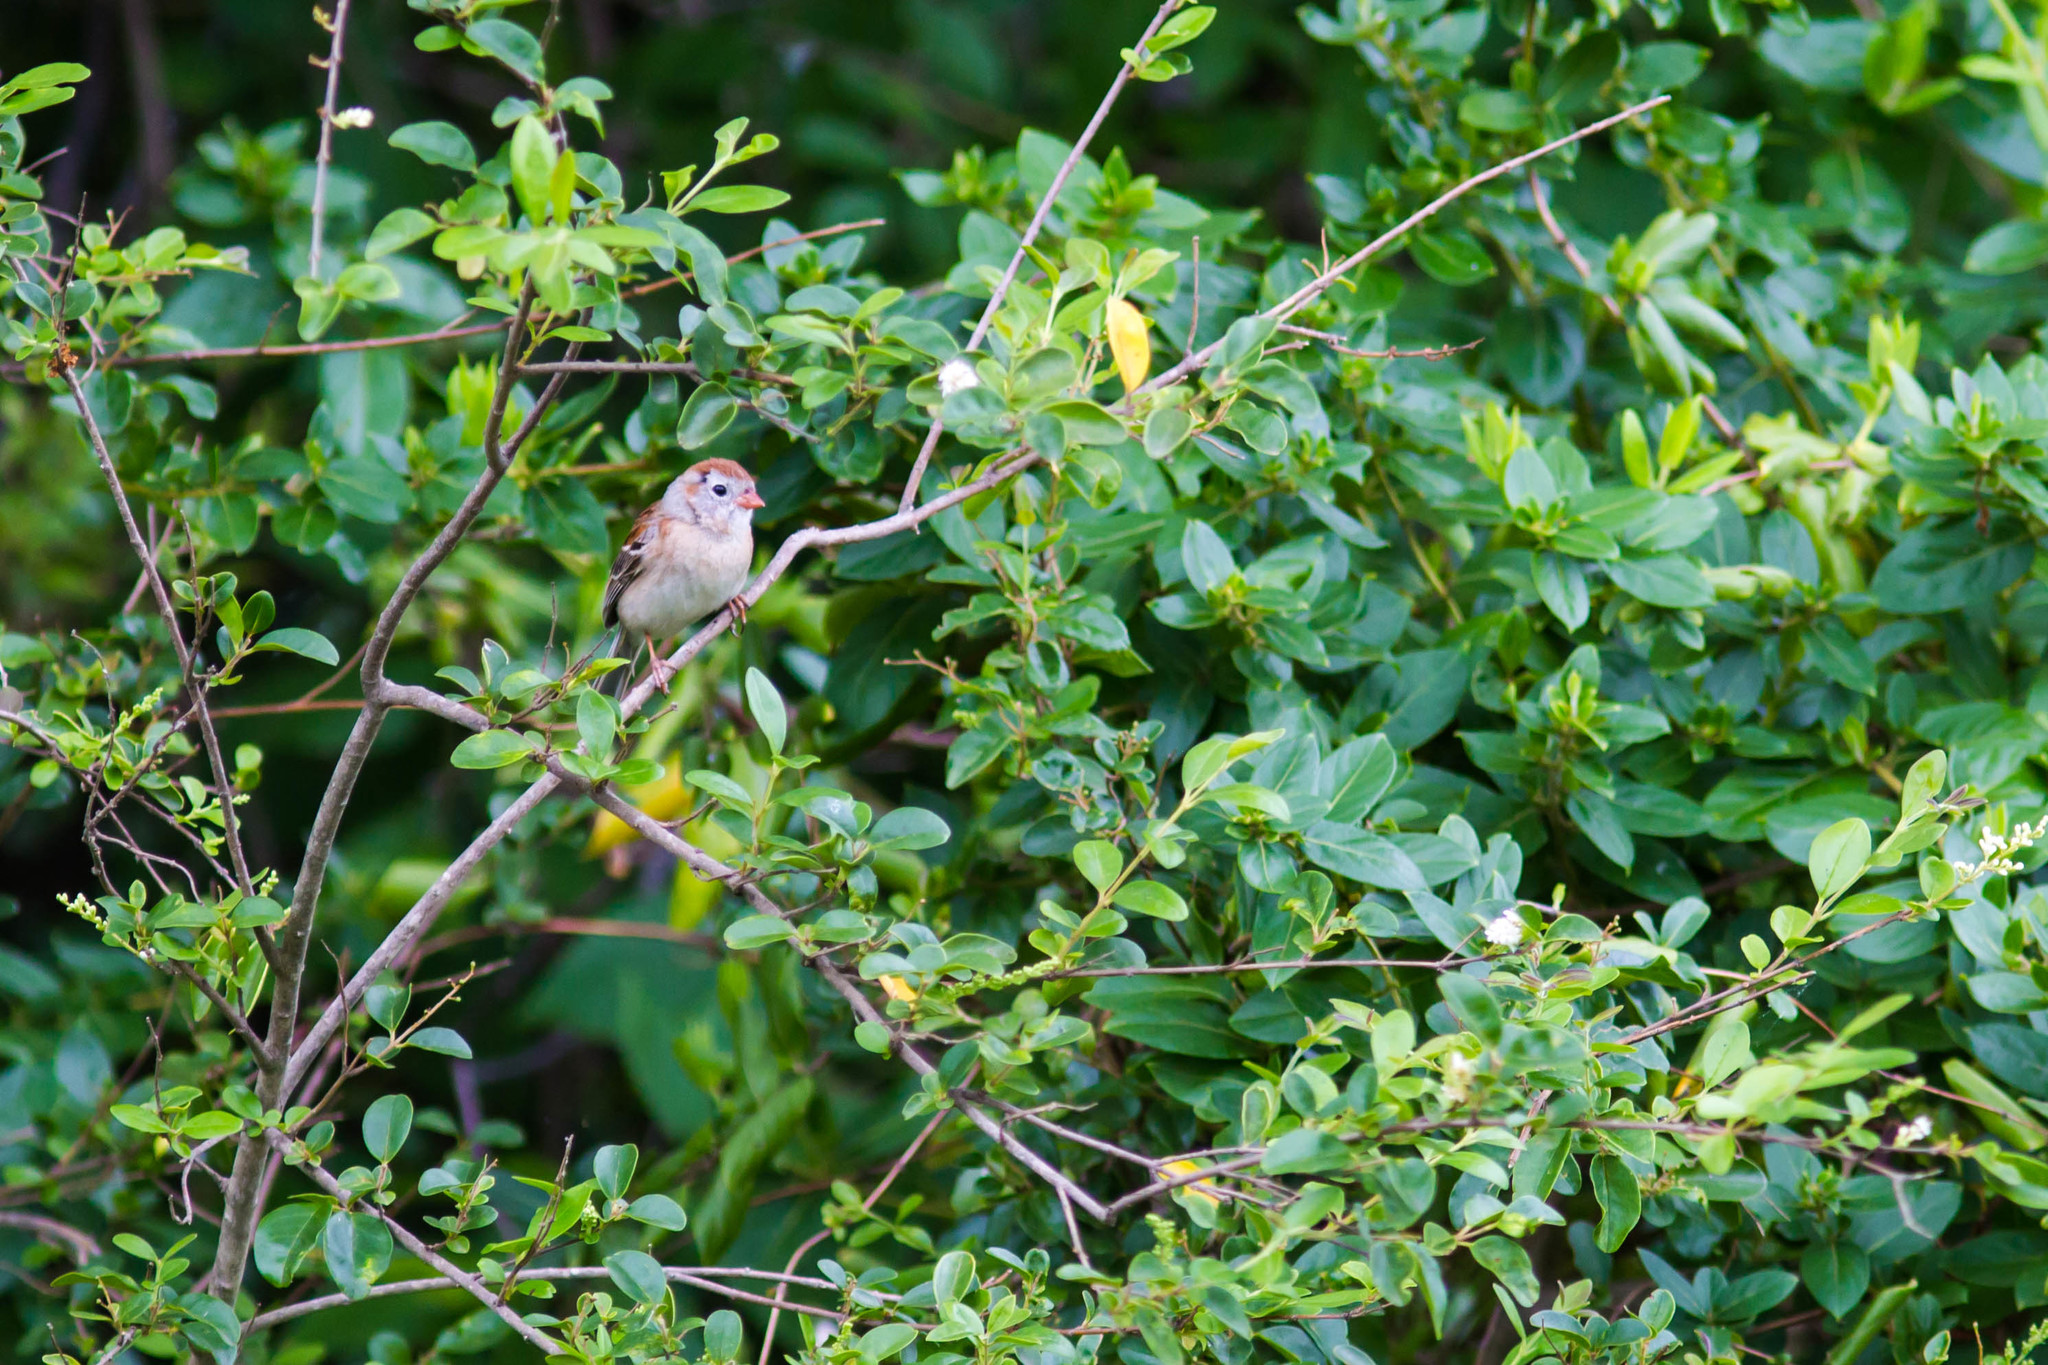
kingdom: Animalia
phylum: Chordata
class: Aves
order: Passeriformes
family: Passerellidae
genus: Spizella
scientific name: Spizella pusilla
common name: Field sparrow
